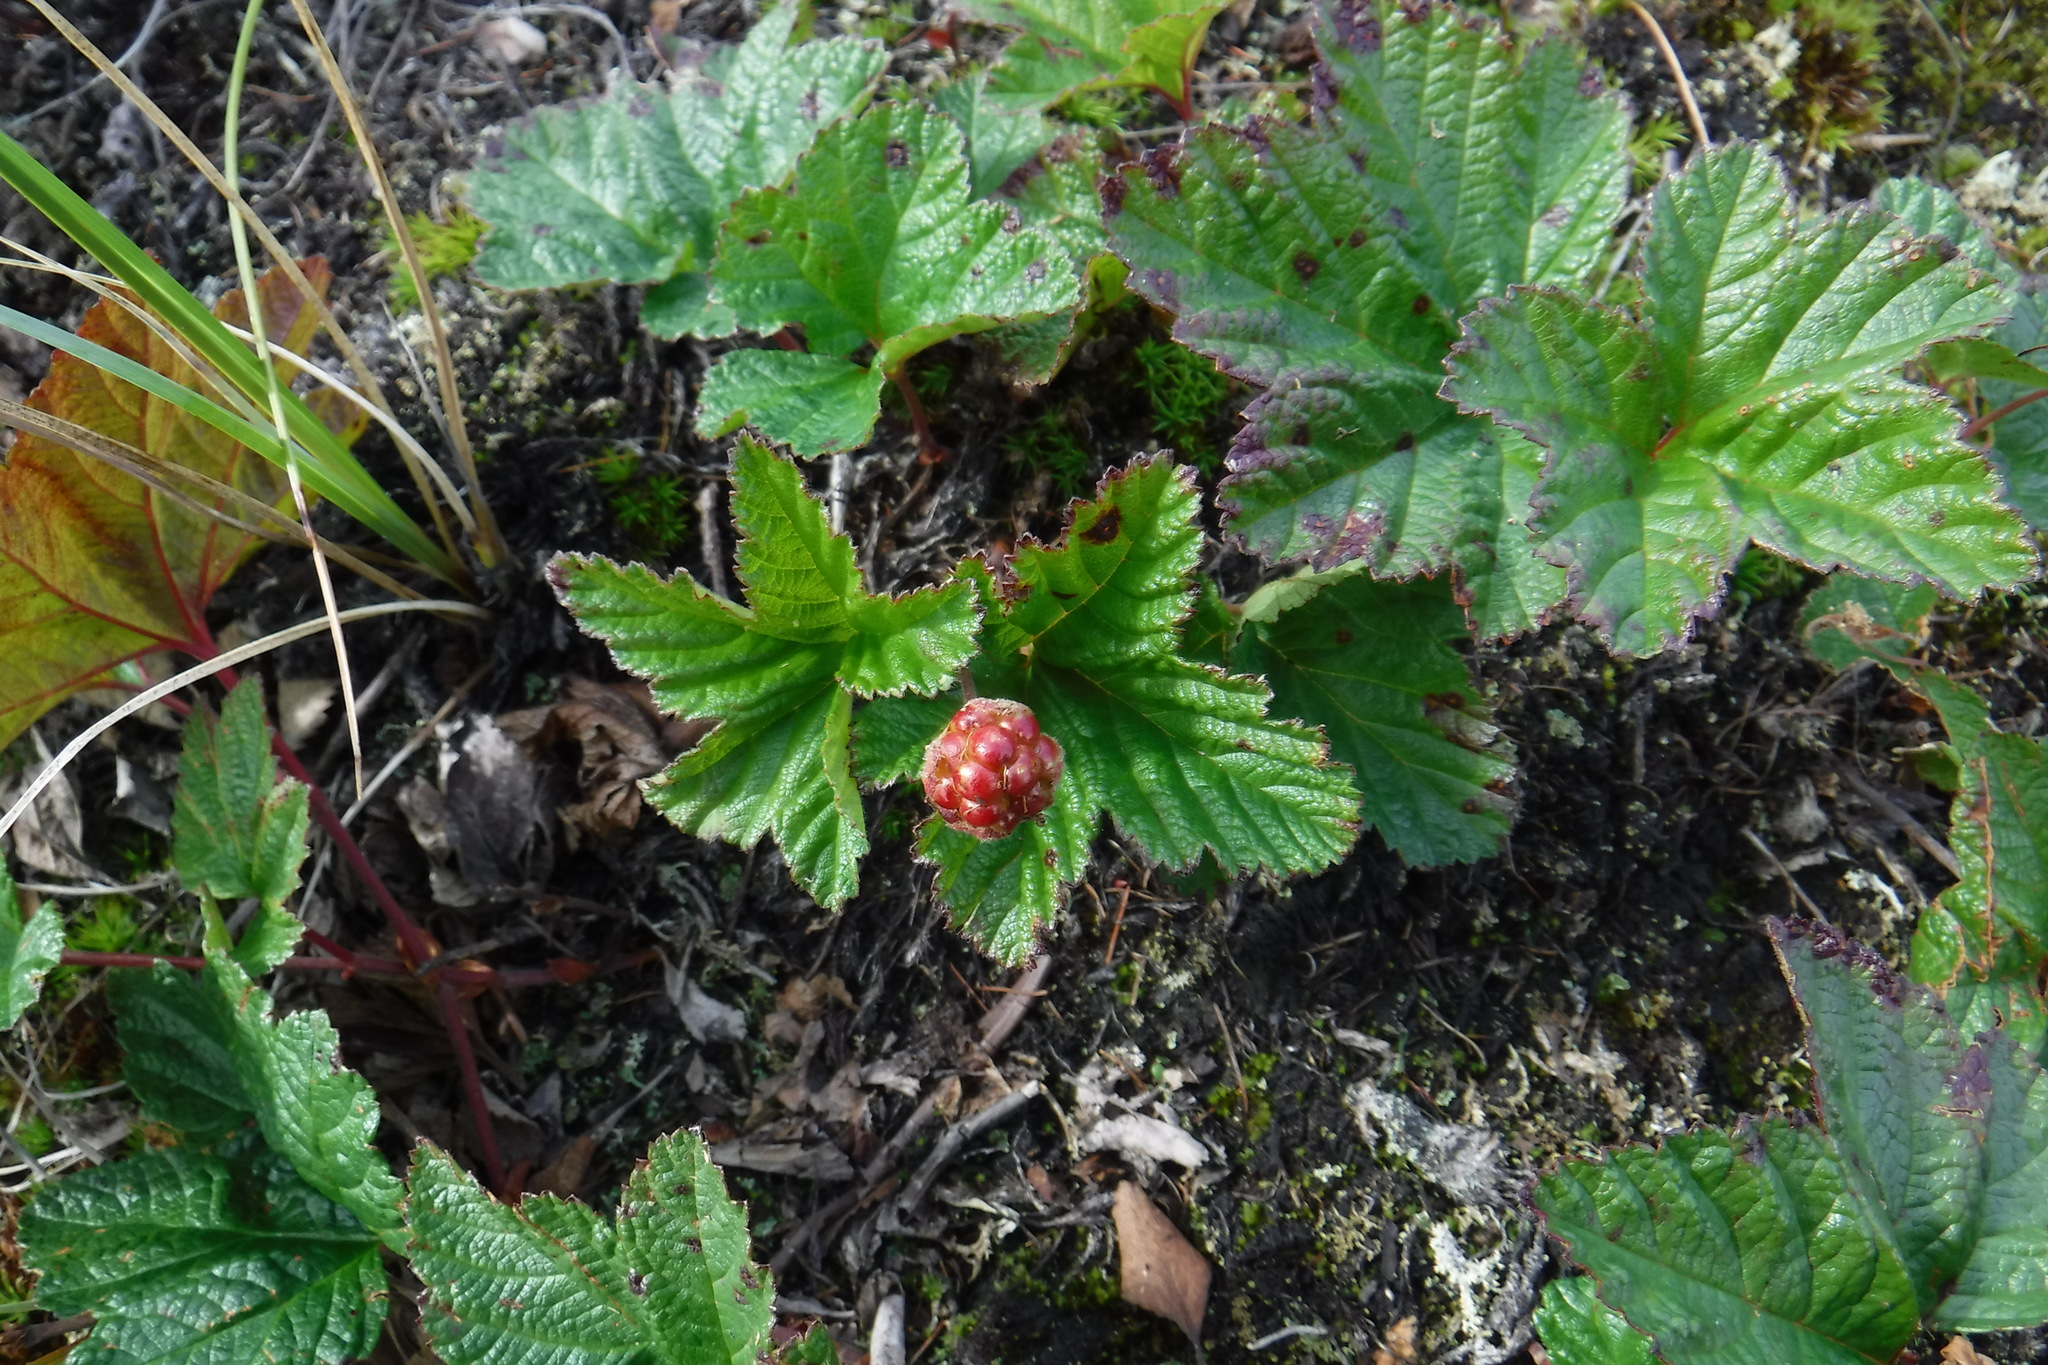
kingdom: Plantae
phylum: Tracheophyta
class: Magnoliopsida
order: Rosales
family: Rosaceae
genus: Rubus
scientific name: Rubus chamaemorus
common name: Cloudberry
